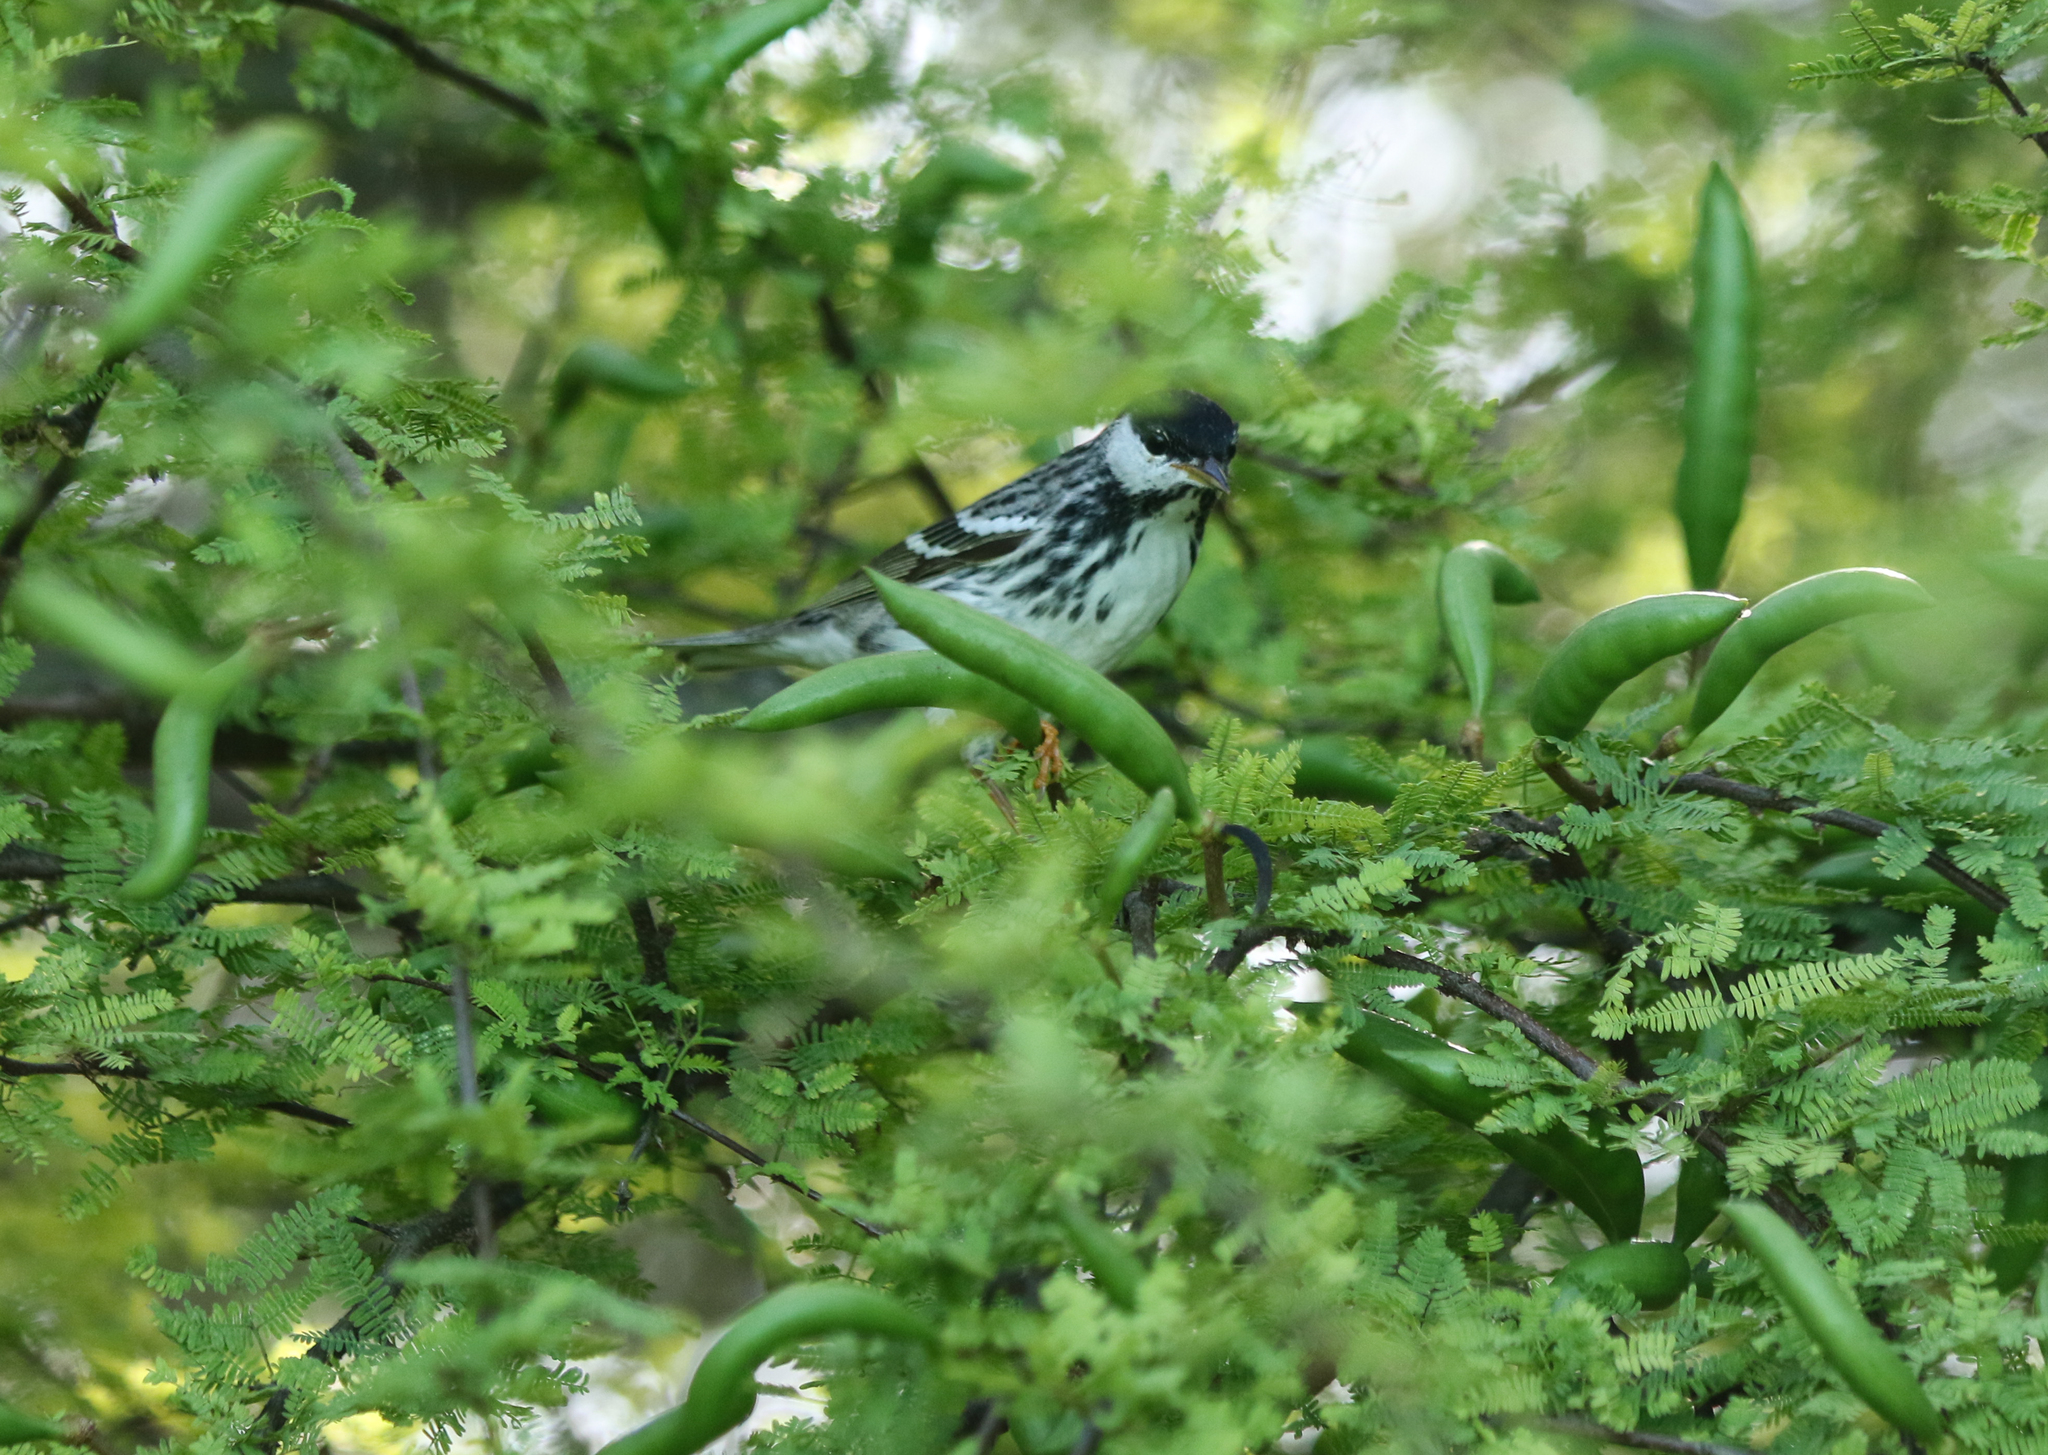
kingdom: Animalia
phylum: Chordata
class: Aves
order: Passeriformes
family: Parulidae
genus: Setophaga
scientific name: Setophaga striata
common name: Blackpoll warbler
